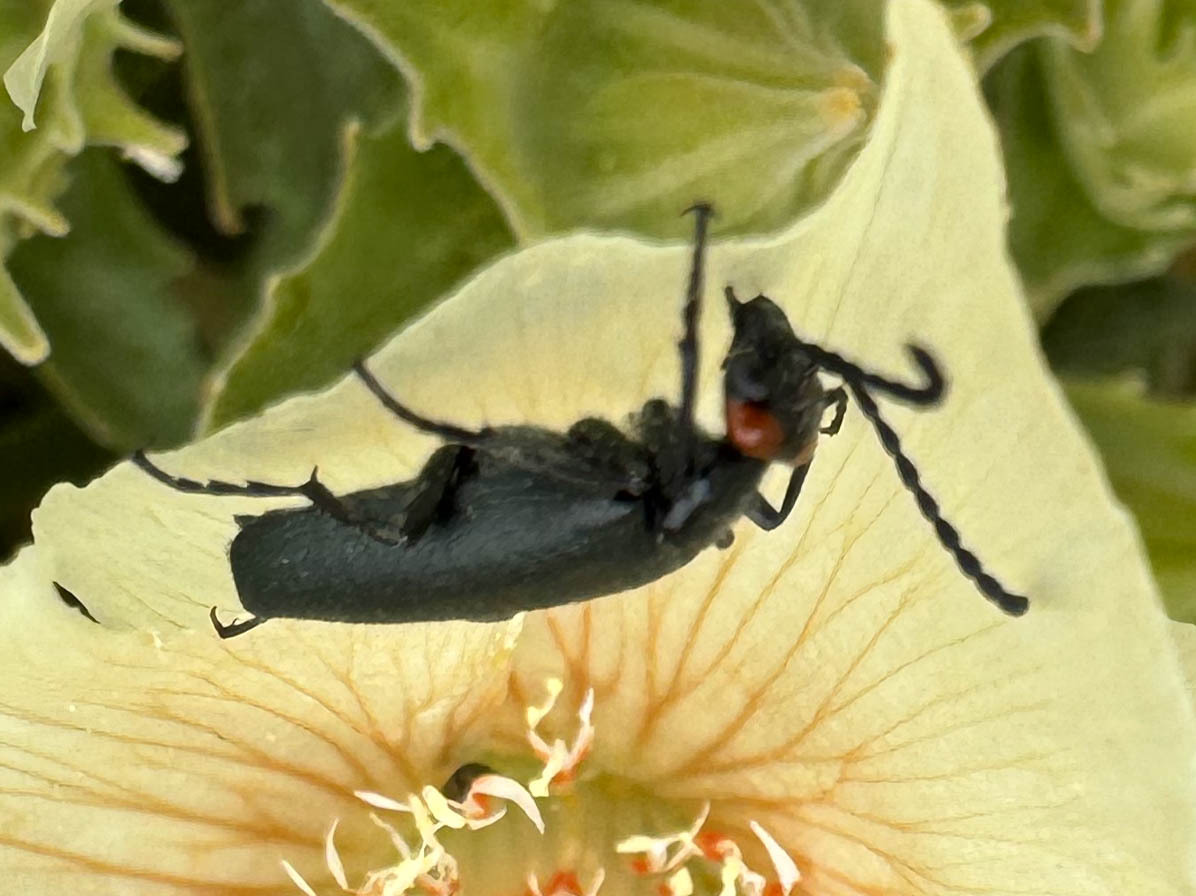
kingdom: Animalia
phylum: Arthropoda
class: Insecta
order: Coleoptera
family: Meloidae
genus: Lytta
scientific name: Lytta auriculata
